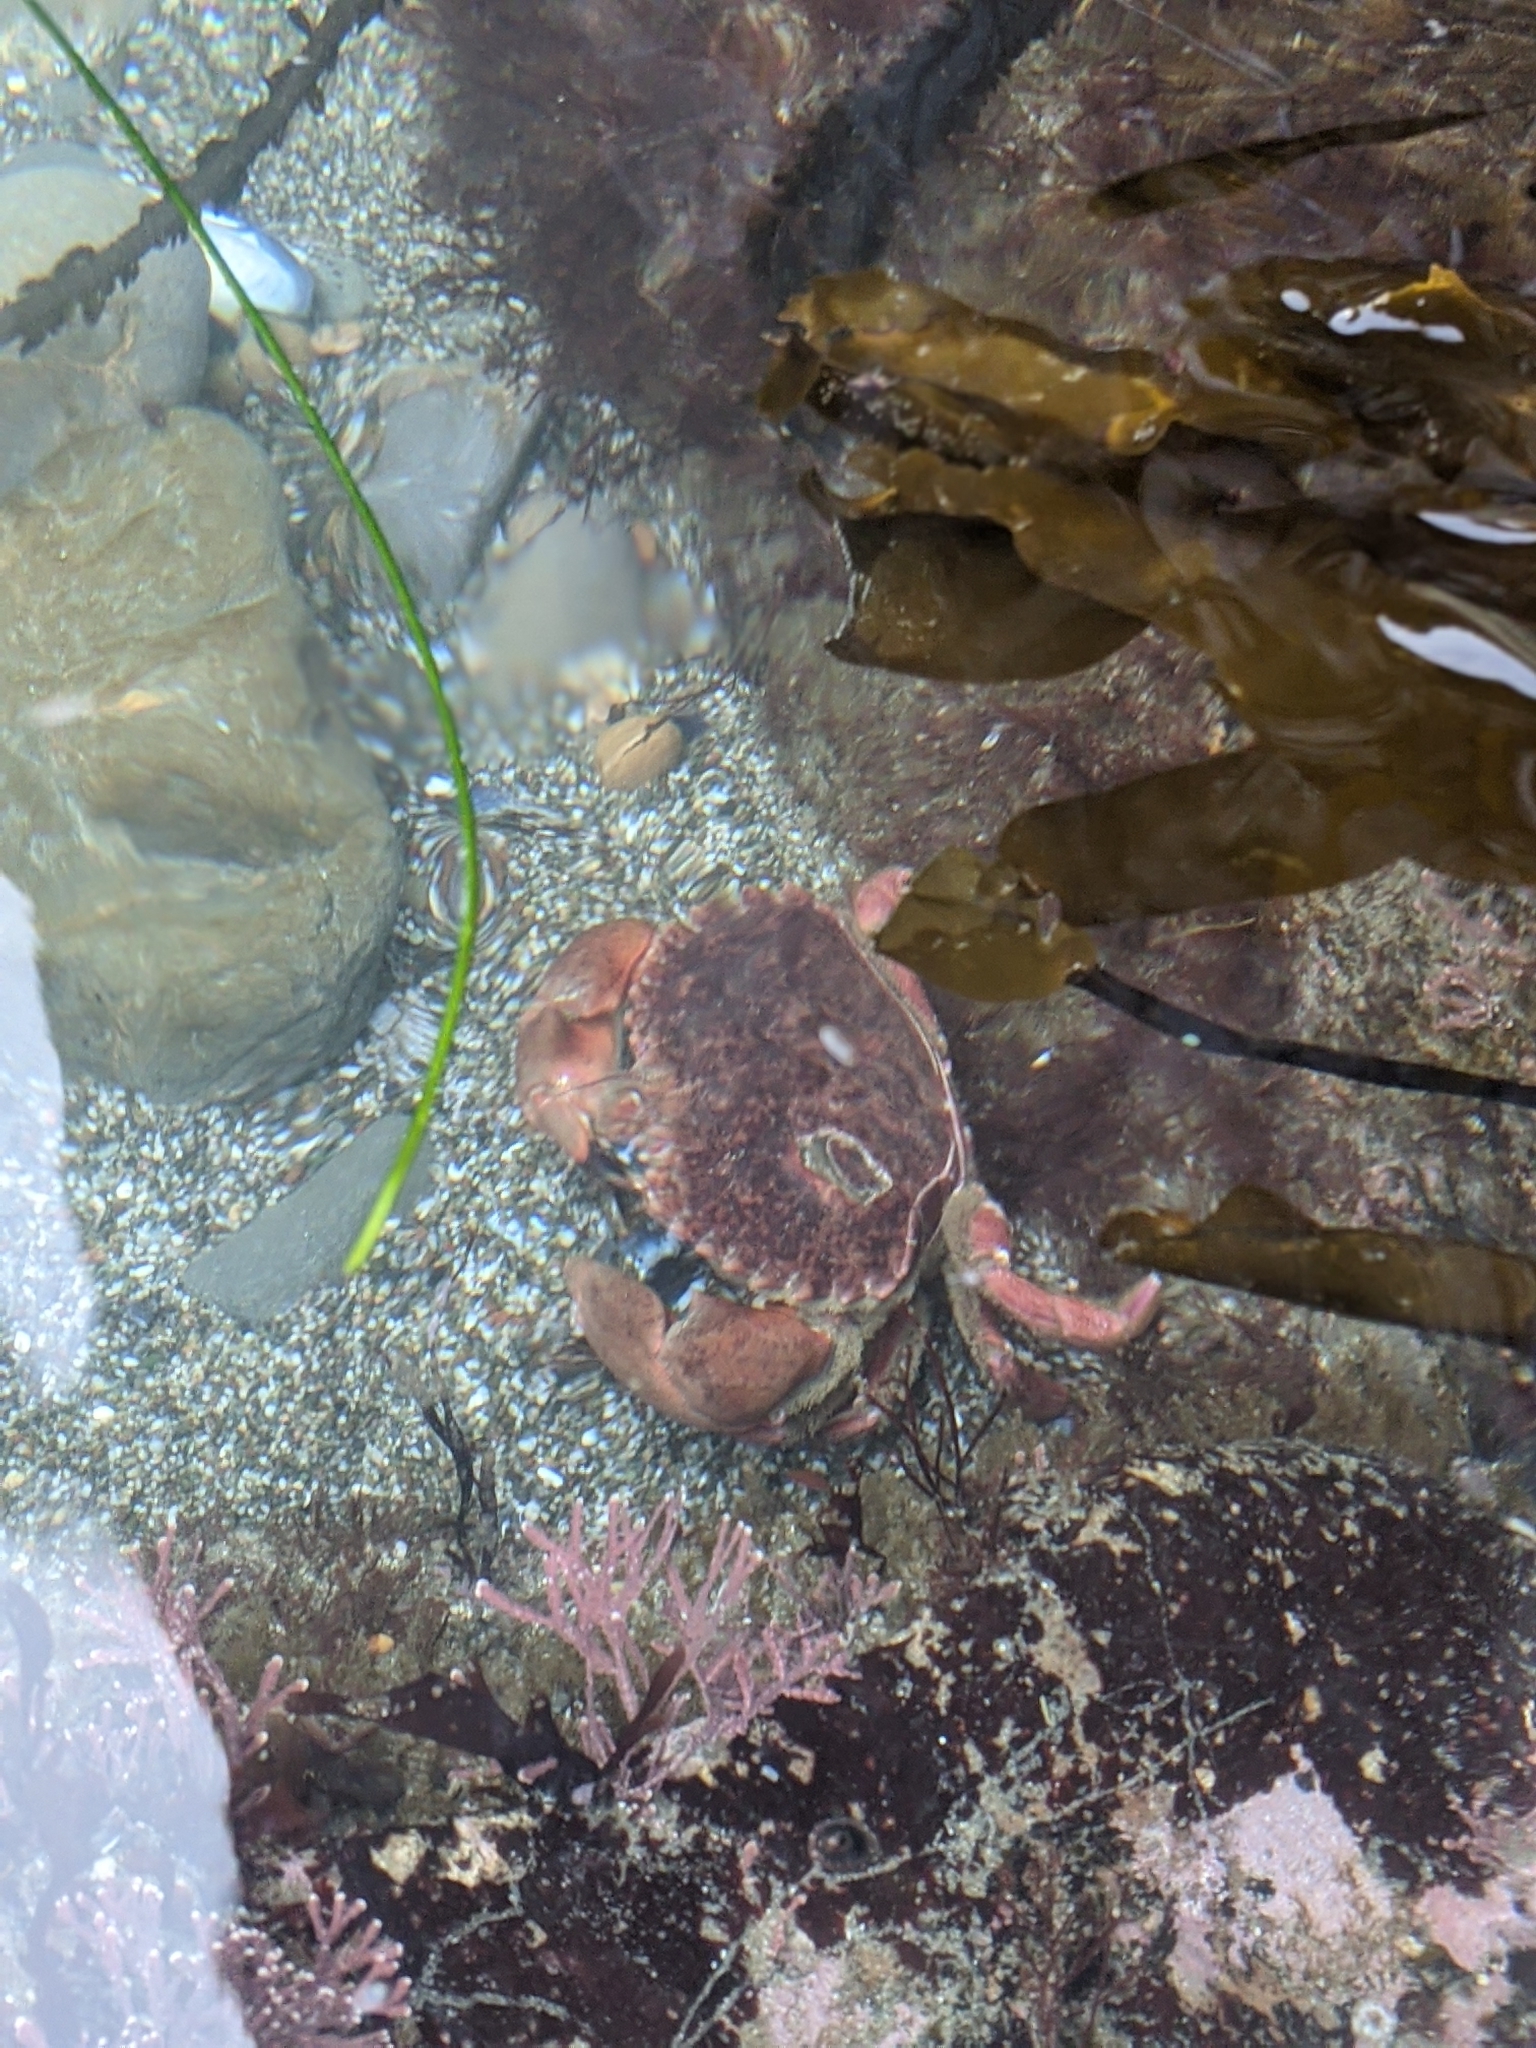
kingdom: Animalia
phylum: Arthropoda
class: Malacostraca
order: Decapoda
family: Cancridae
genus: Romaleon
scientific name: Romaleon antennarium
